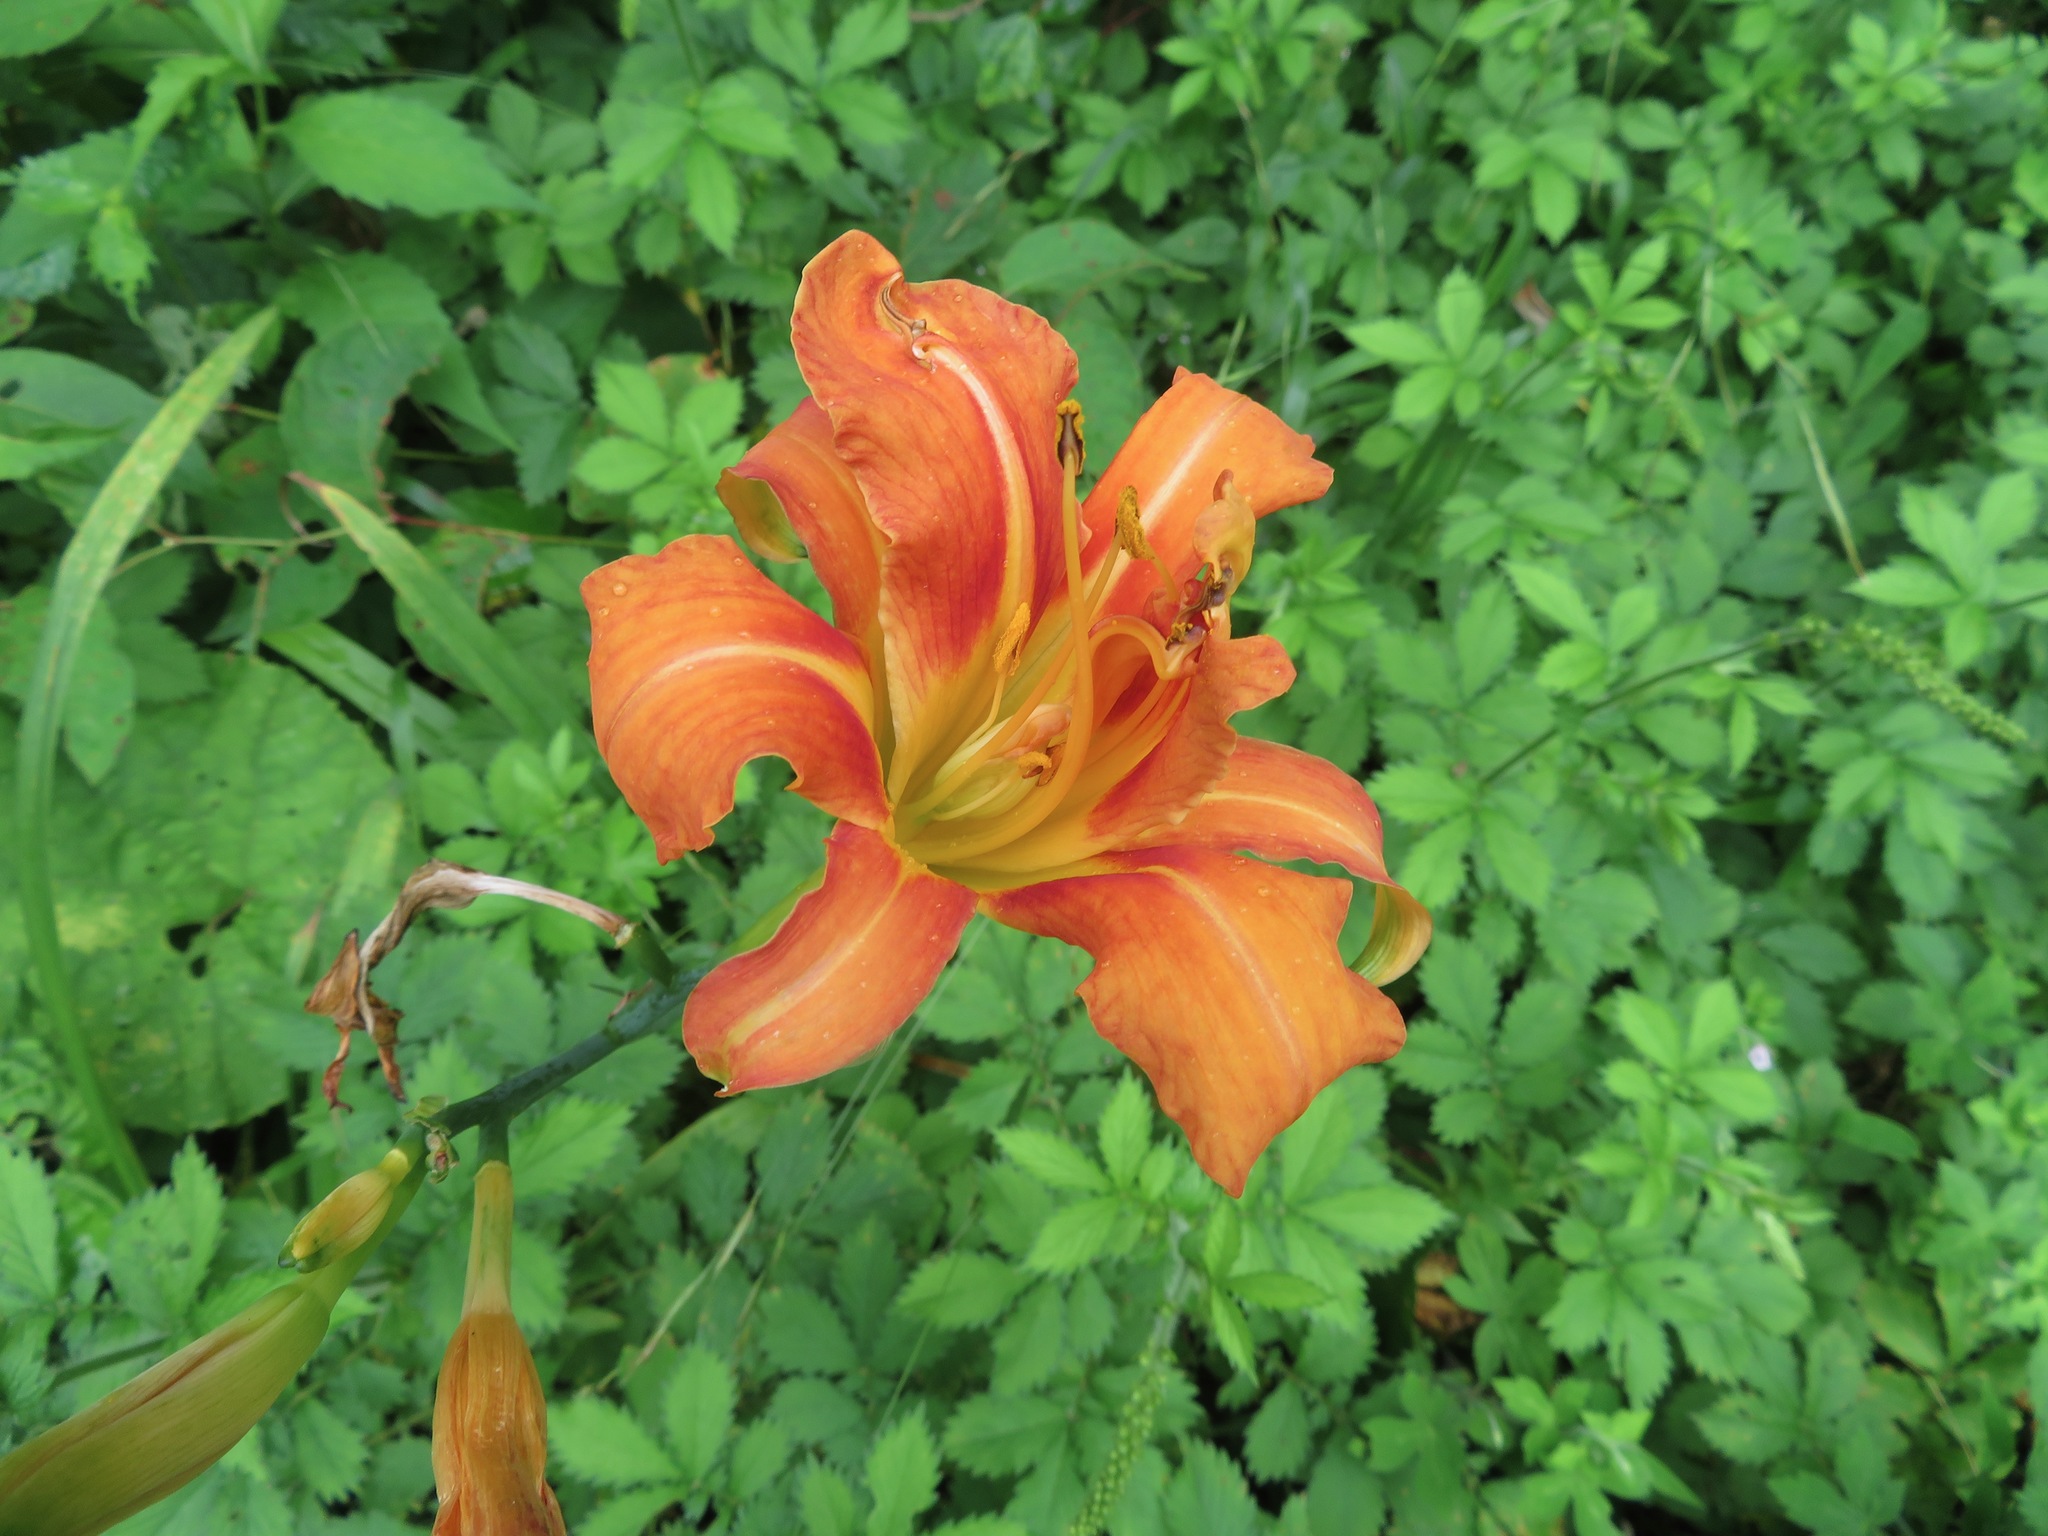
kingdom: Plantae
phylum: Tracheophyta
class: Liliopsida
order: Asparagales
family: Asphodelaceae
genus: Hemerocallis
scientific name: Hemerocallis fulva
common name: Orange day-lily
